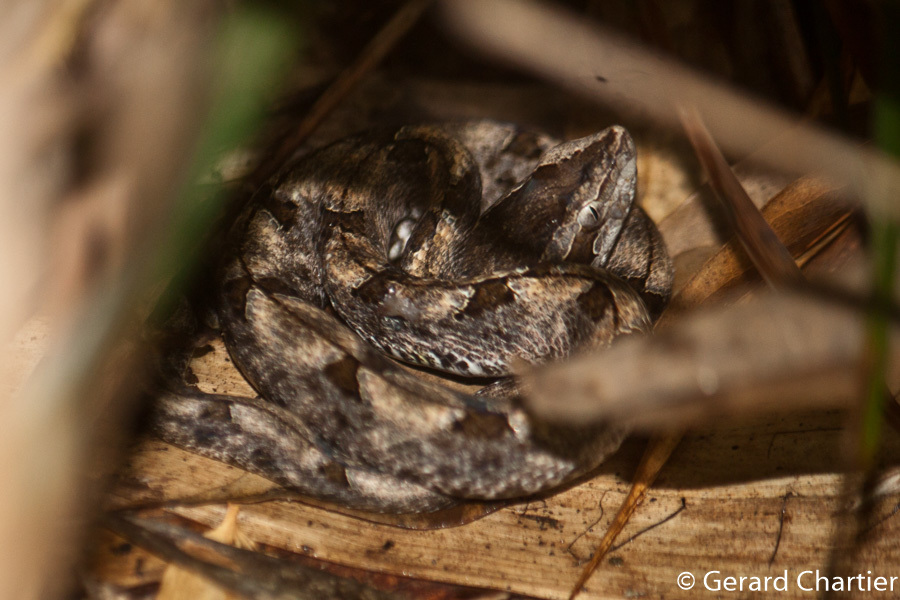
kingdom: Animalia
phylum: Chordata
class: Squamata
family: Viperidae
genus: Calloselasma
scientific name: Calloselasma rhodostoma
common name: Malayan pit viper
